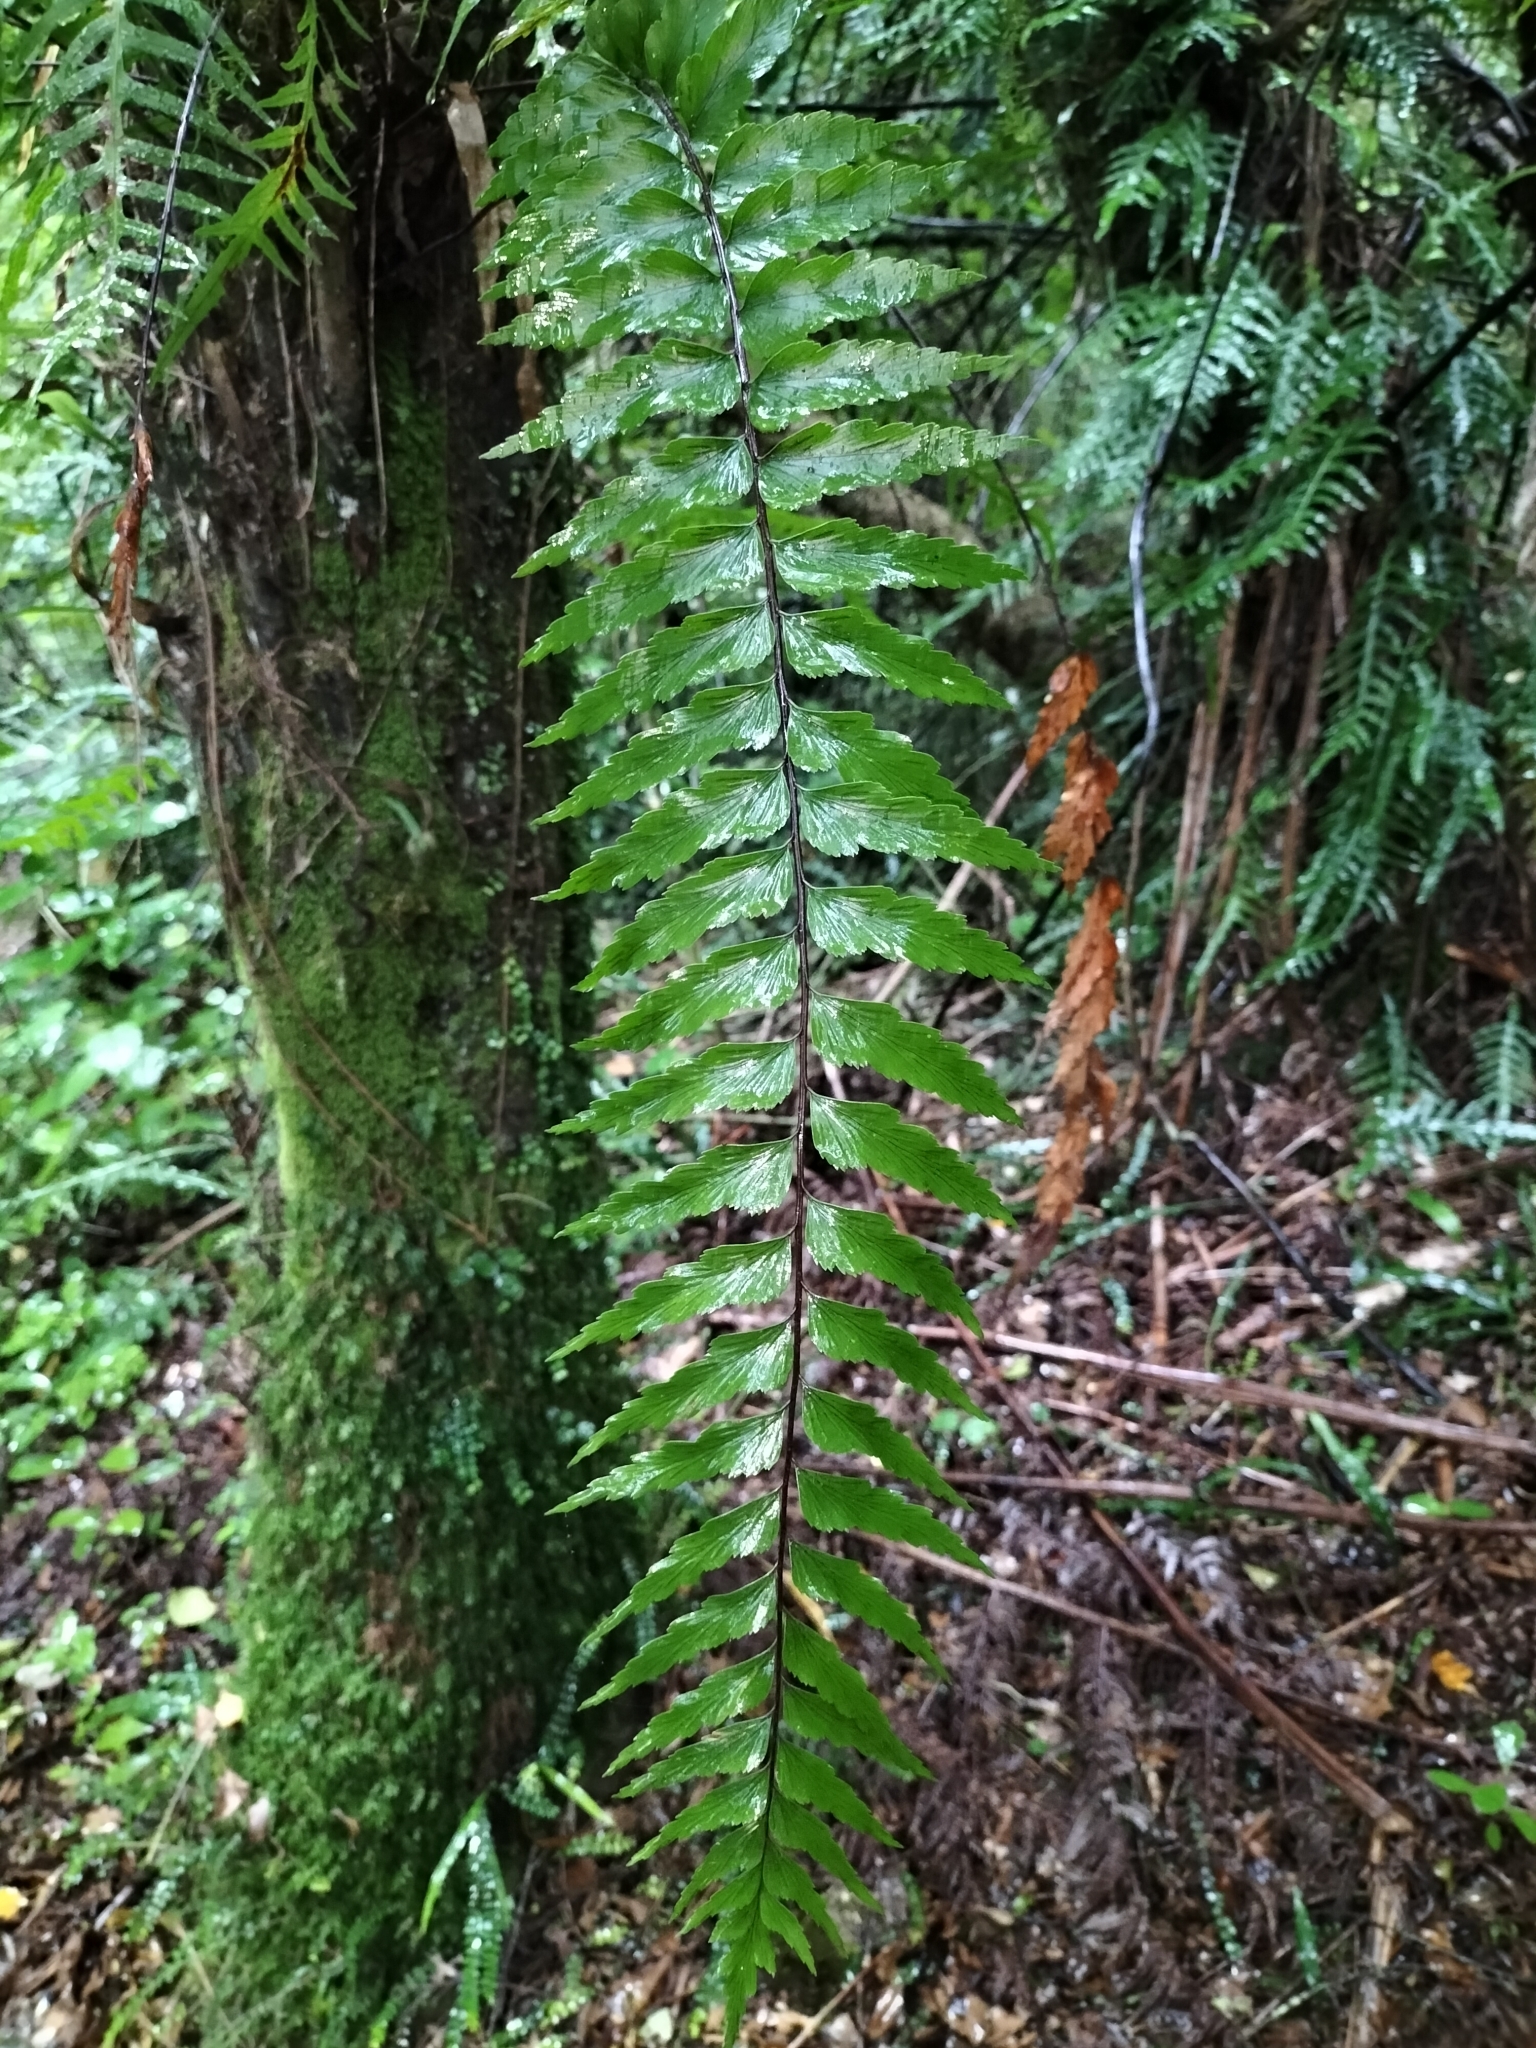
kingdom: Plantae
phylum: Tracheophyta
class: Polypodiopsida
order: Polypodiales
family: Aspleniaceae
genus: Asplenium
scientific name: Asplenium polyodon
